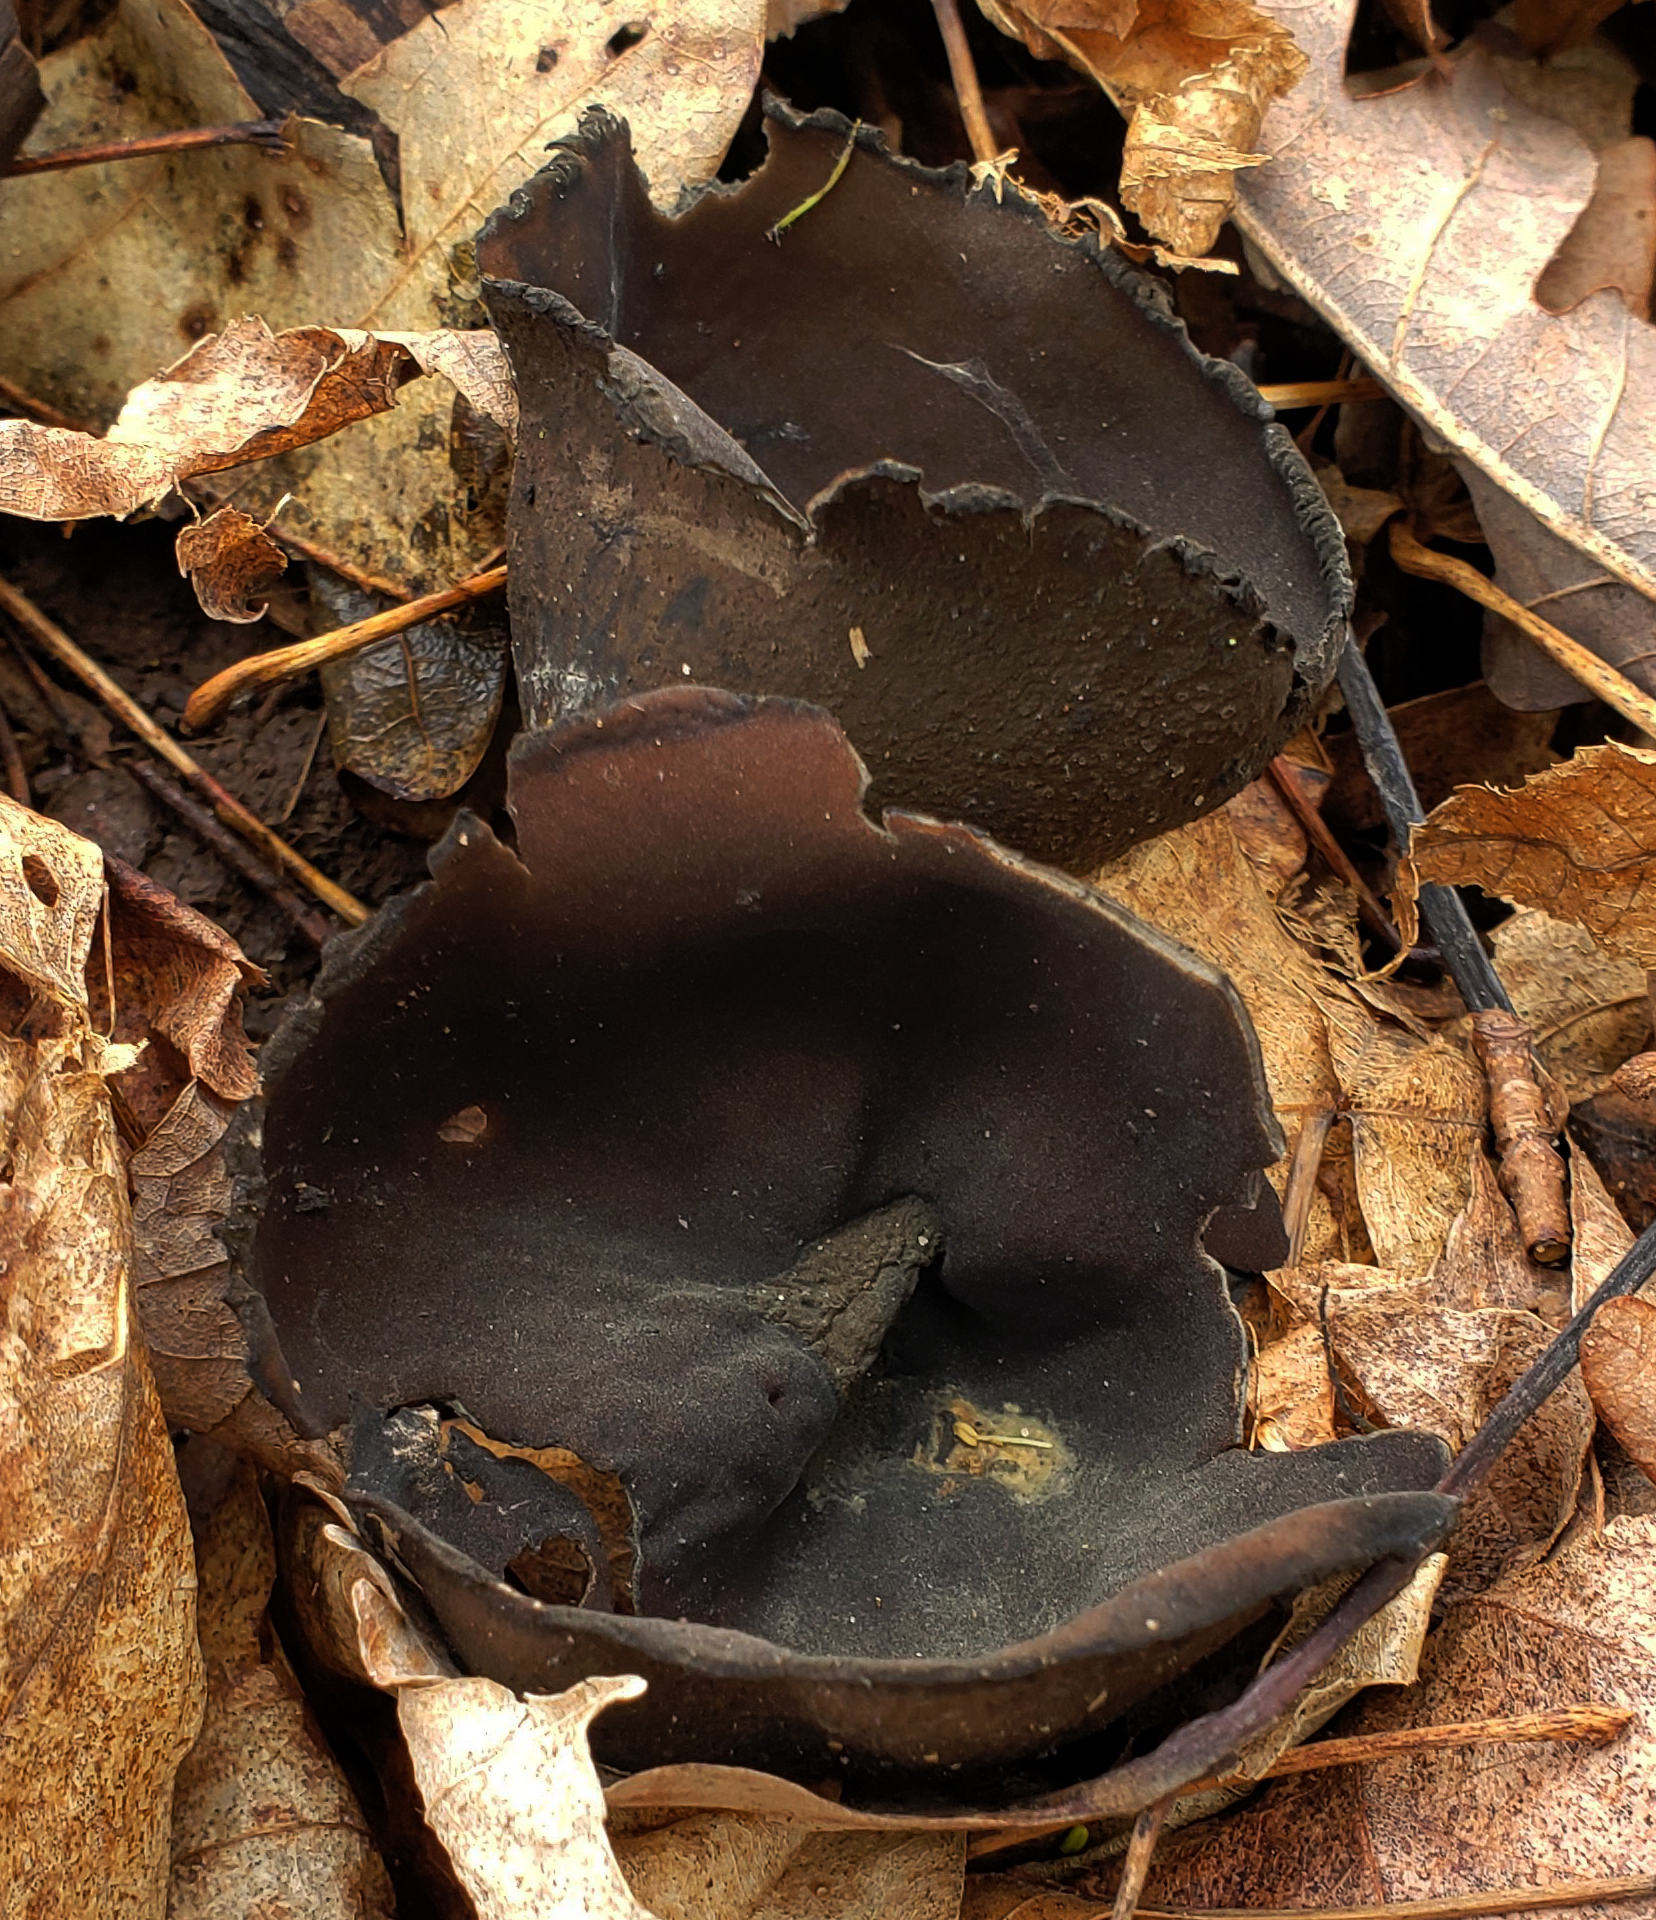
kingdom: Fungi
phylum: Ascomycota
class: Pezizomycetes
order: Pezizales
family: Sarcosomataceae
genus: Urnula
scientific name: Urnula craterium
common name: Devil's urn
